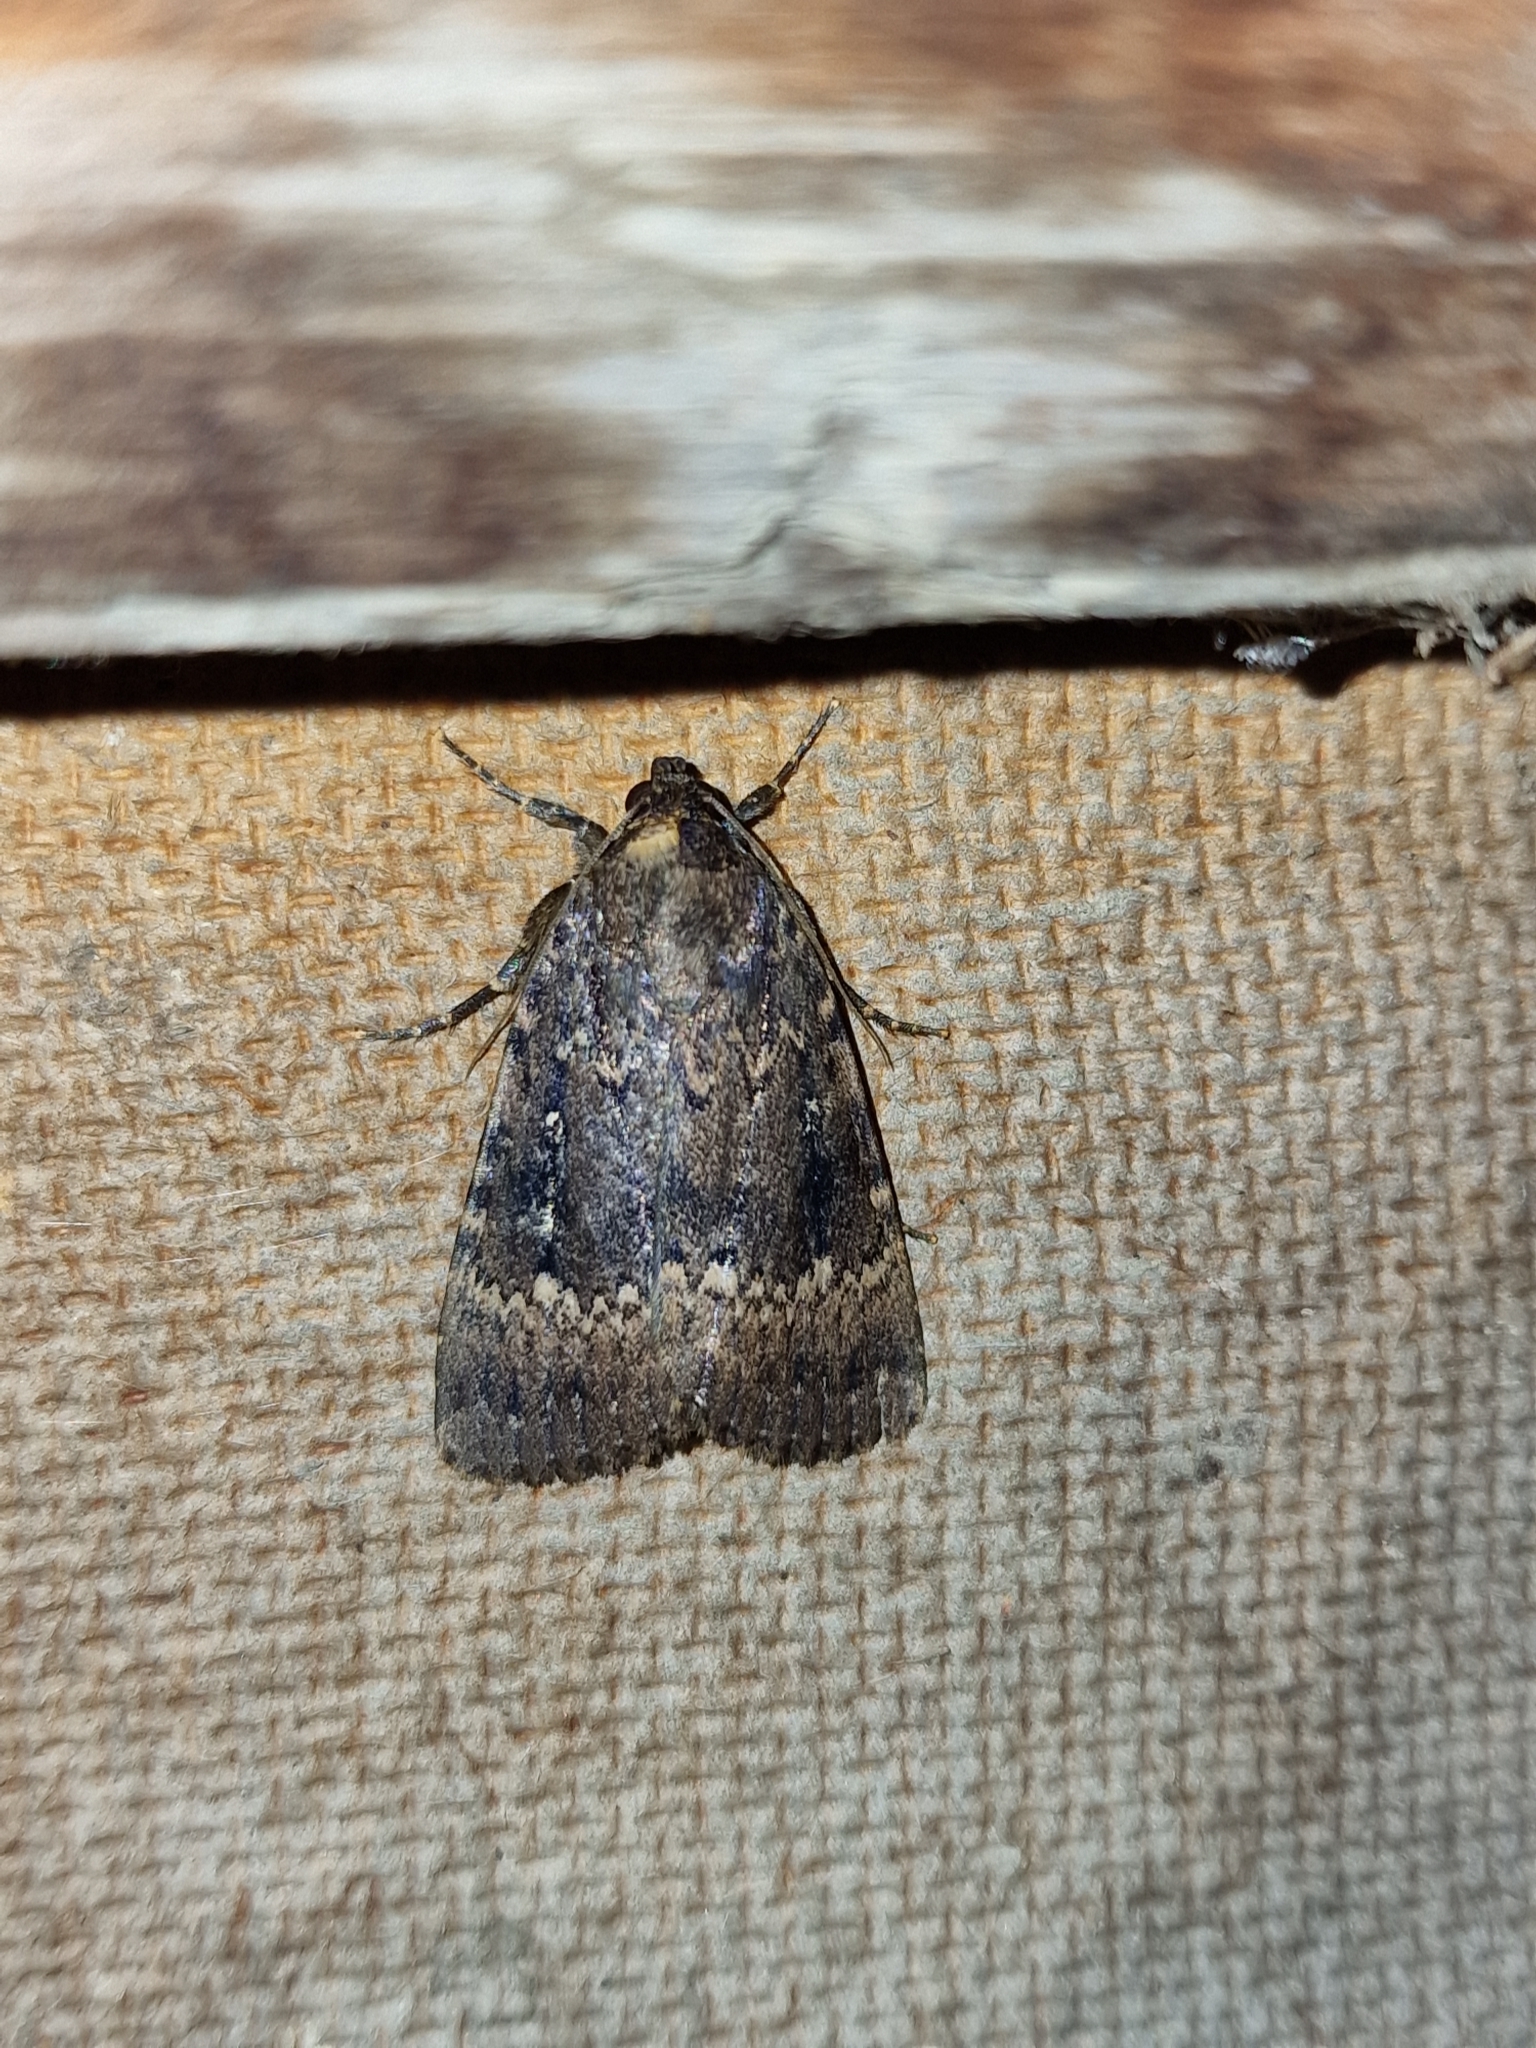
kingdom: Animalia
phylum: Arthropoda
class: Insecta
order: Lepidoptera
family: Noctuidae
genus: Amphipyra
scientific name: Amphipyra pyramidea
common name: Copper underwing
